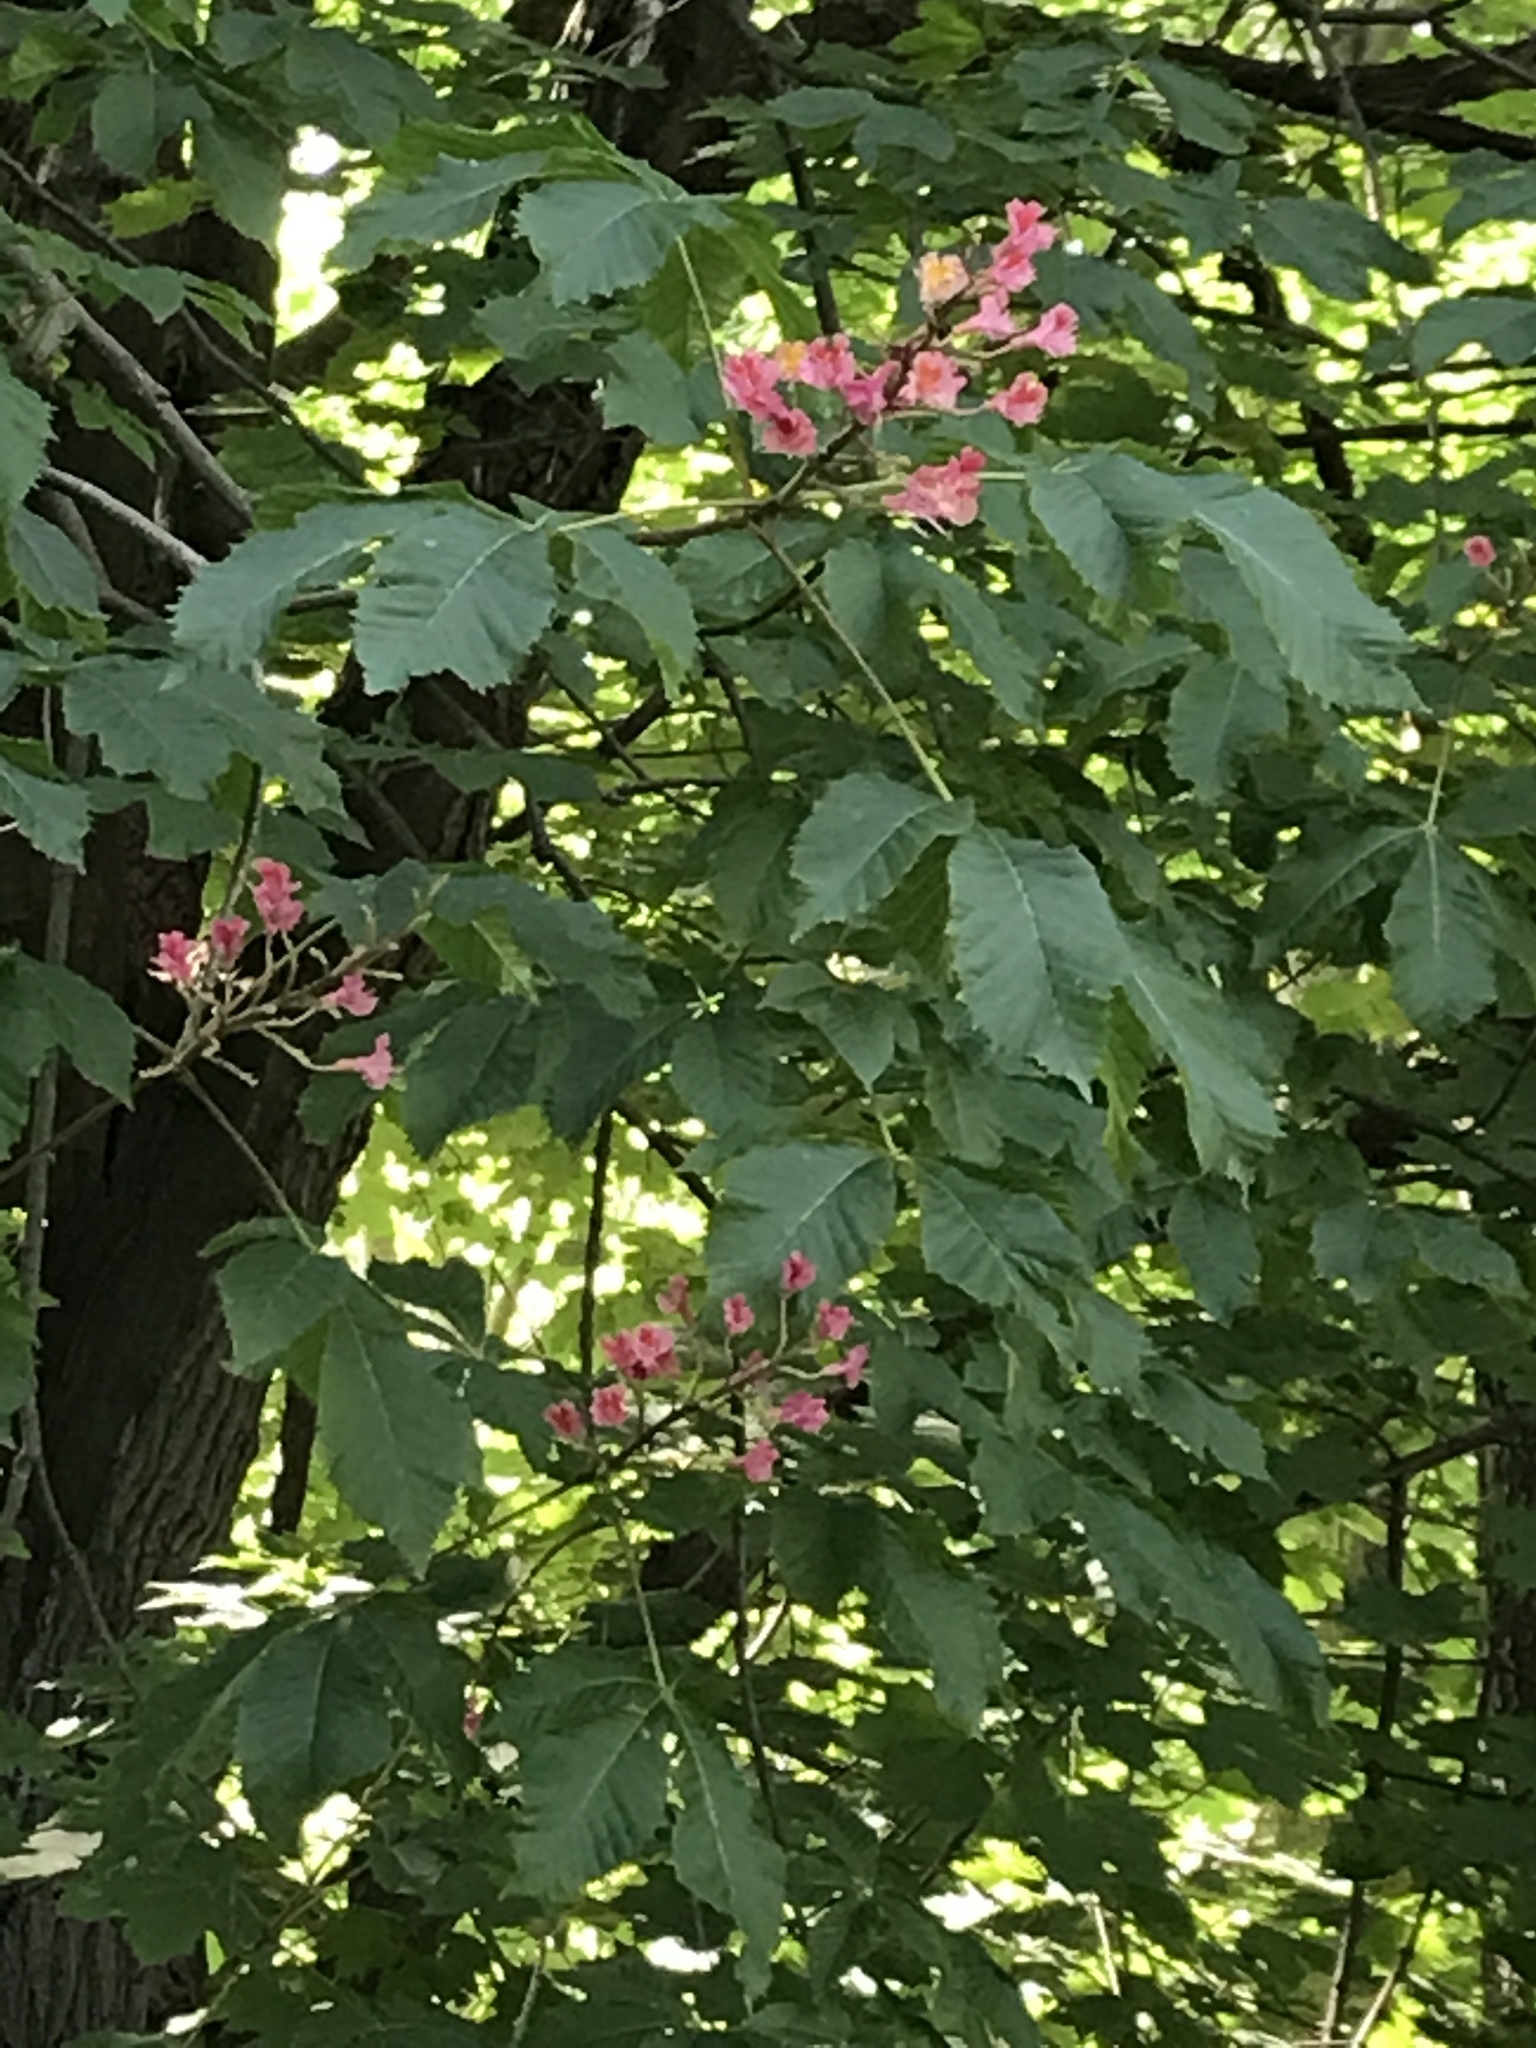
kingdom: Plantae
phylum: Tracheophyta
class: Magnoliopsida
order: Sapindales
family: Sapindaceae
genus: Aesculus
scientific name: Aesculus pavia
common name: Red buckeye
